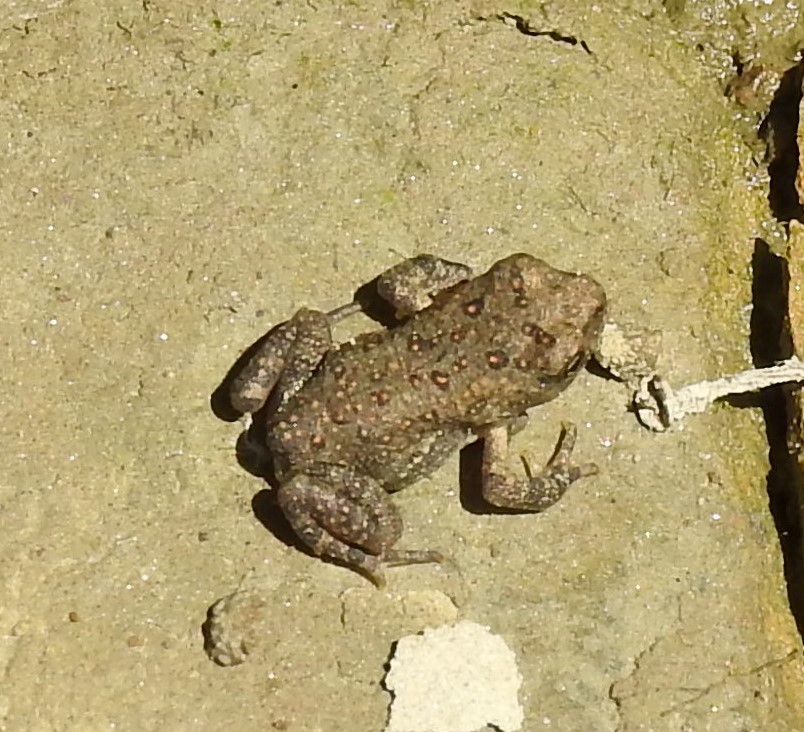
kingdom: Animalia
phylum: Chordata
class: Amphibia
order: Anura
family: Bufonidae
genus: Anaxyrus
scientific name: Anaxyrus americanus
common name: American toad
